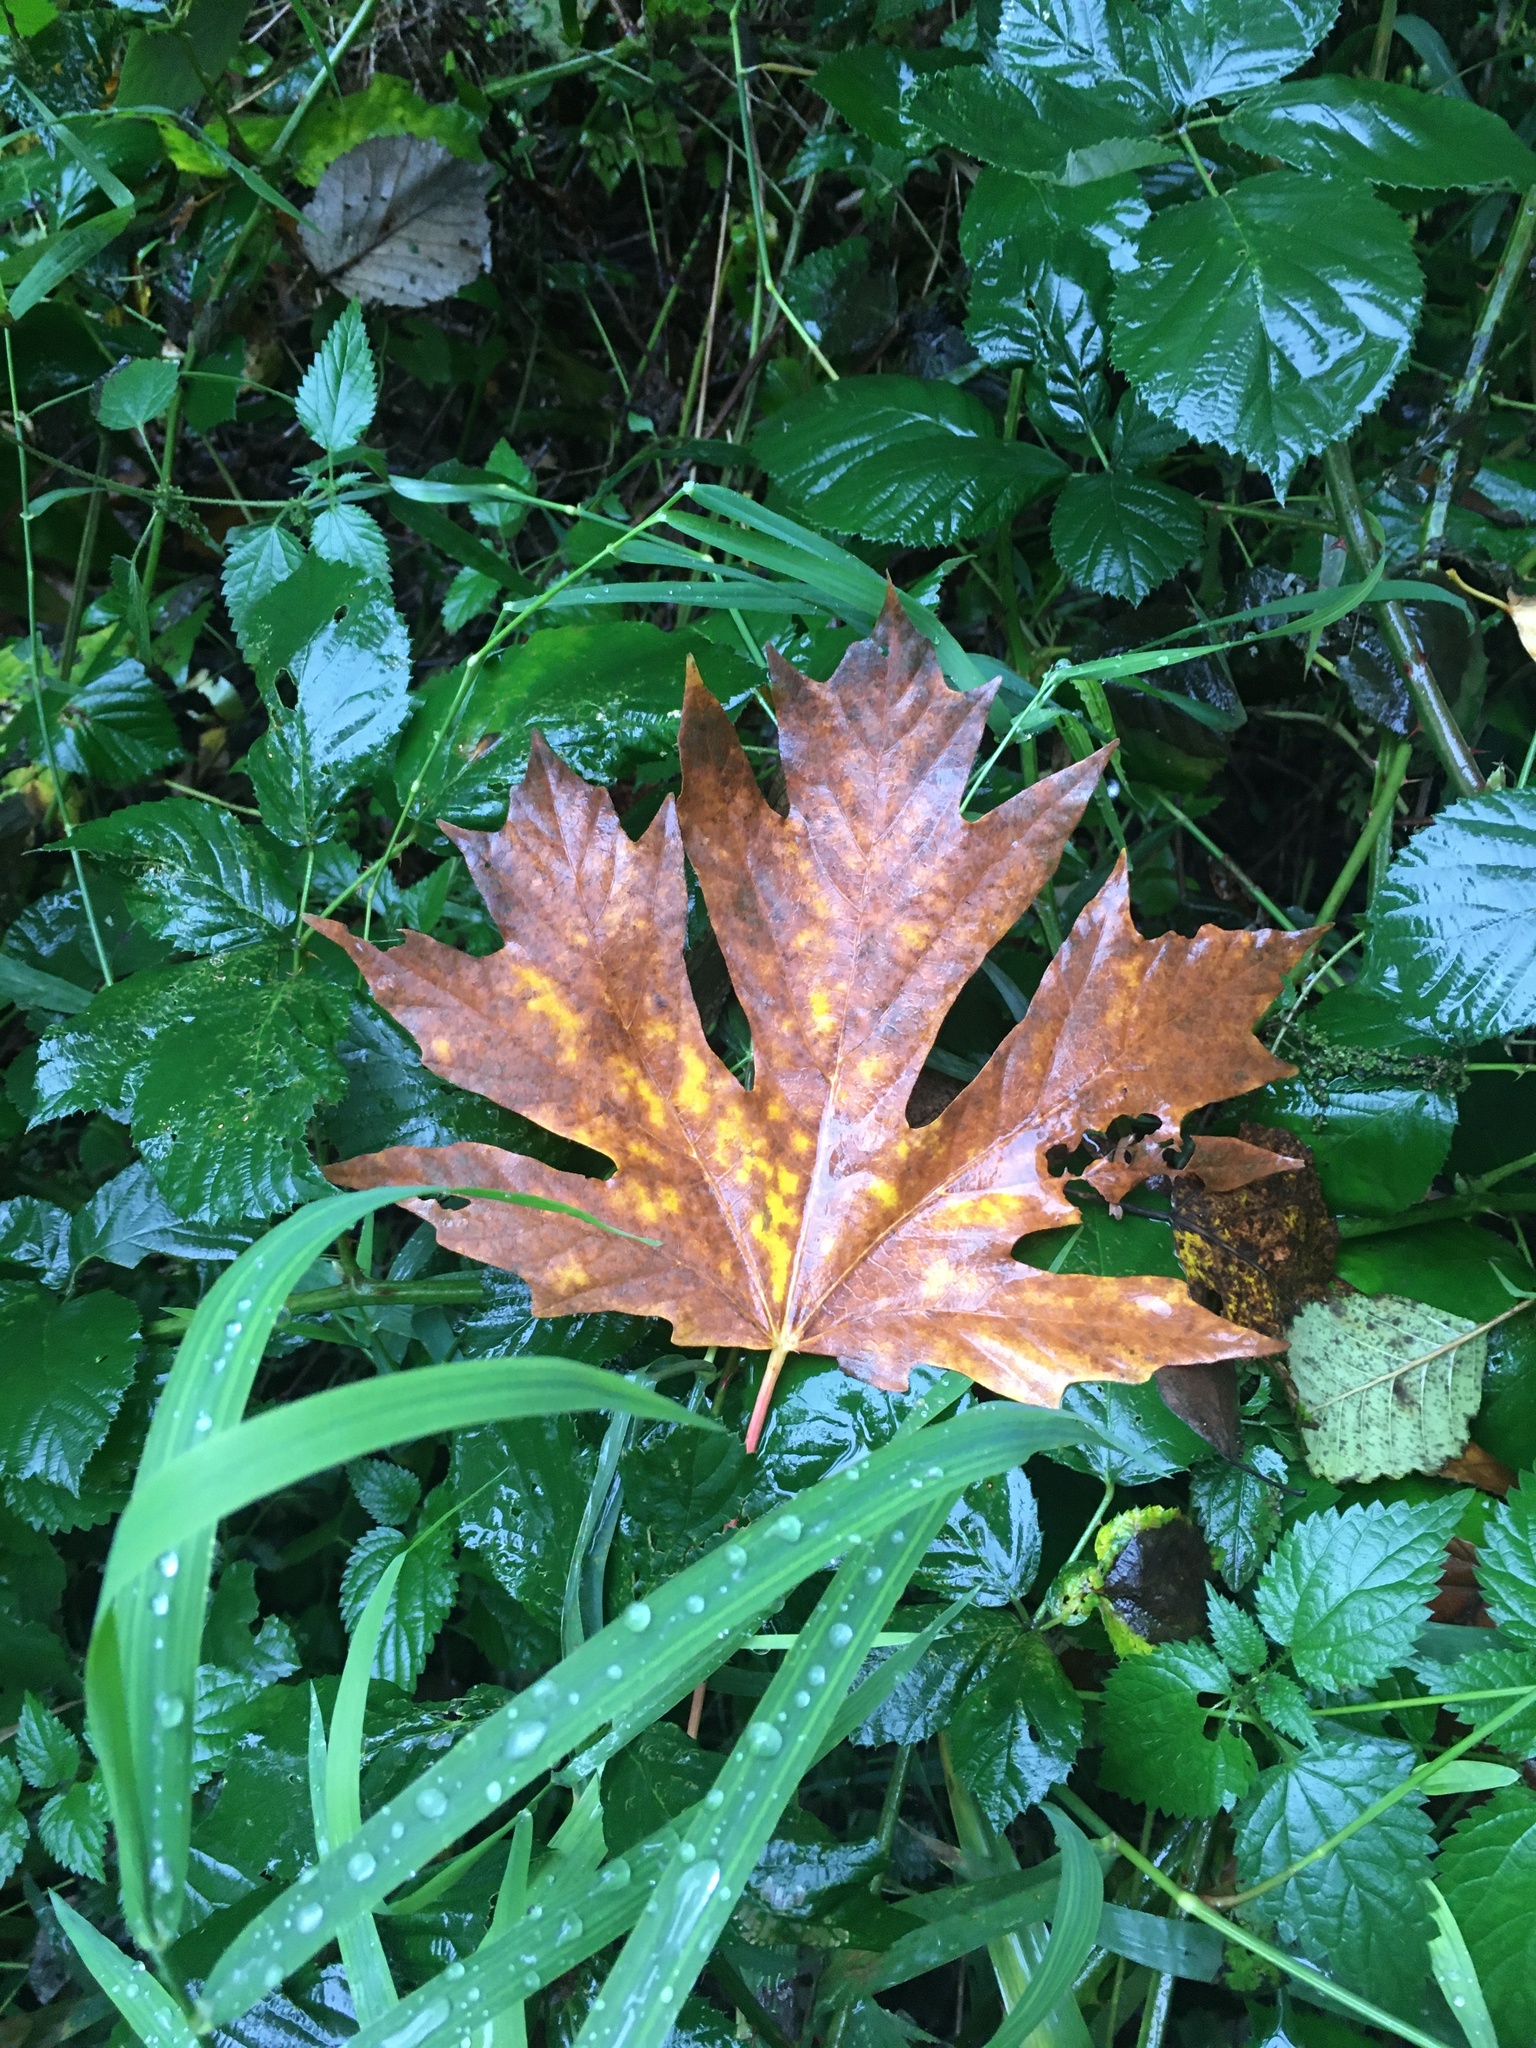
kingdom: Plantae
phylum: Tracheophyta
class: Magnoliopsida
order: Sapindales
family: Sapindaceae
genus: Acer
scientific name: Acer macrophyllum
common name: Oregon maple
